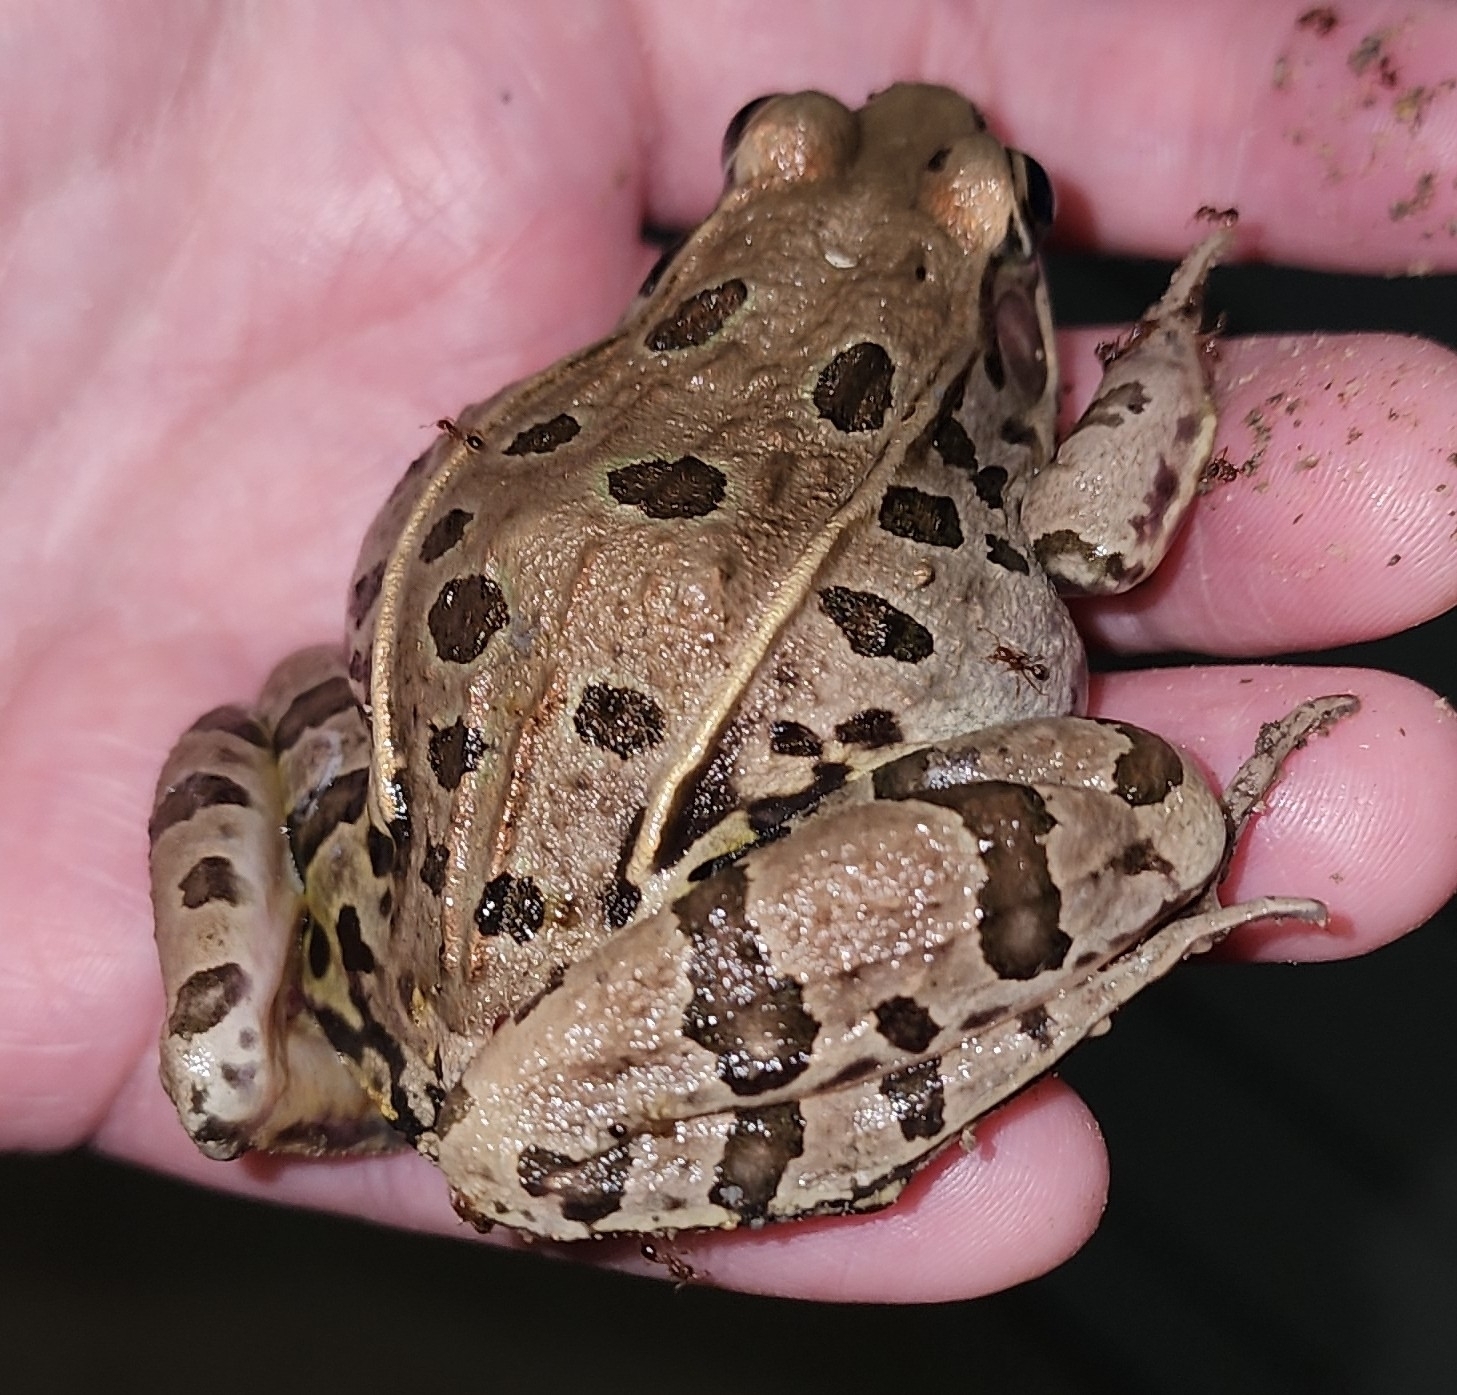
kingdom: Animalia
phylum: Chordata
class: Amphibia
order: Anura
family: Ranidae
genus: Lithobates
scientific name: Lithobates sphenocephalus
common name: Southern leopard frog
